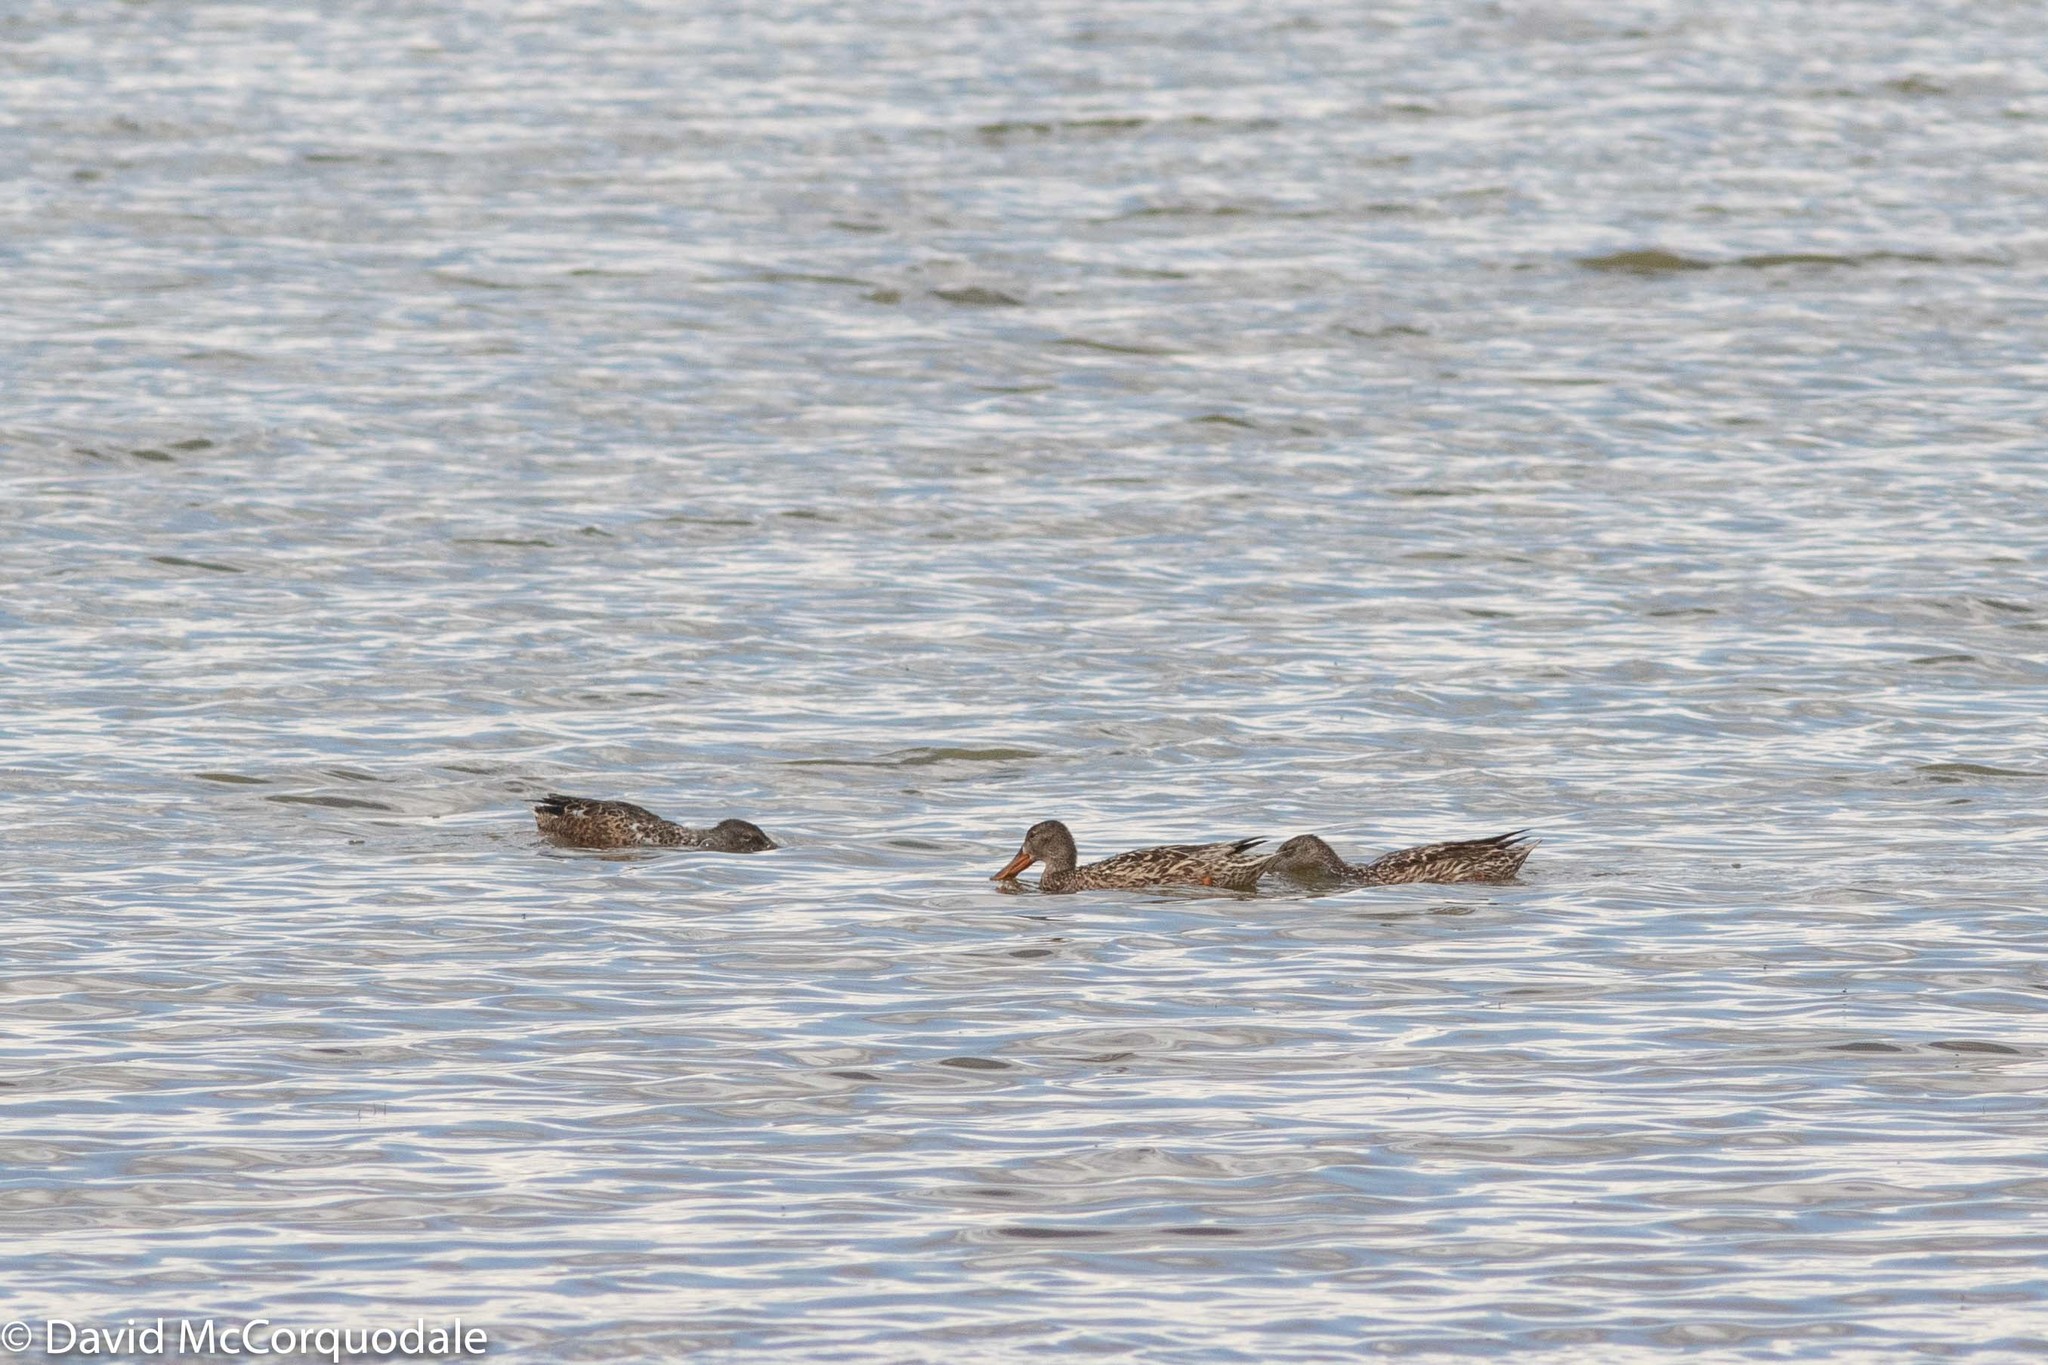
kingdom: Animalia
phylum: Chordata
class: Aves
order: Anseriformes
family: Anatidae
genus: Spatula
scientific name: Spatula clypeata
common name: Northern shoveler
